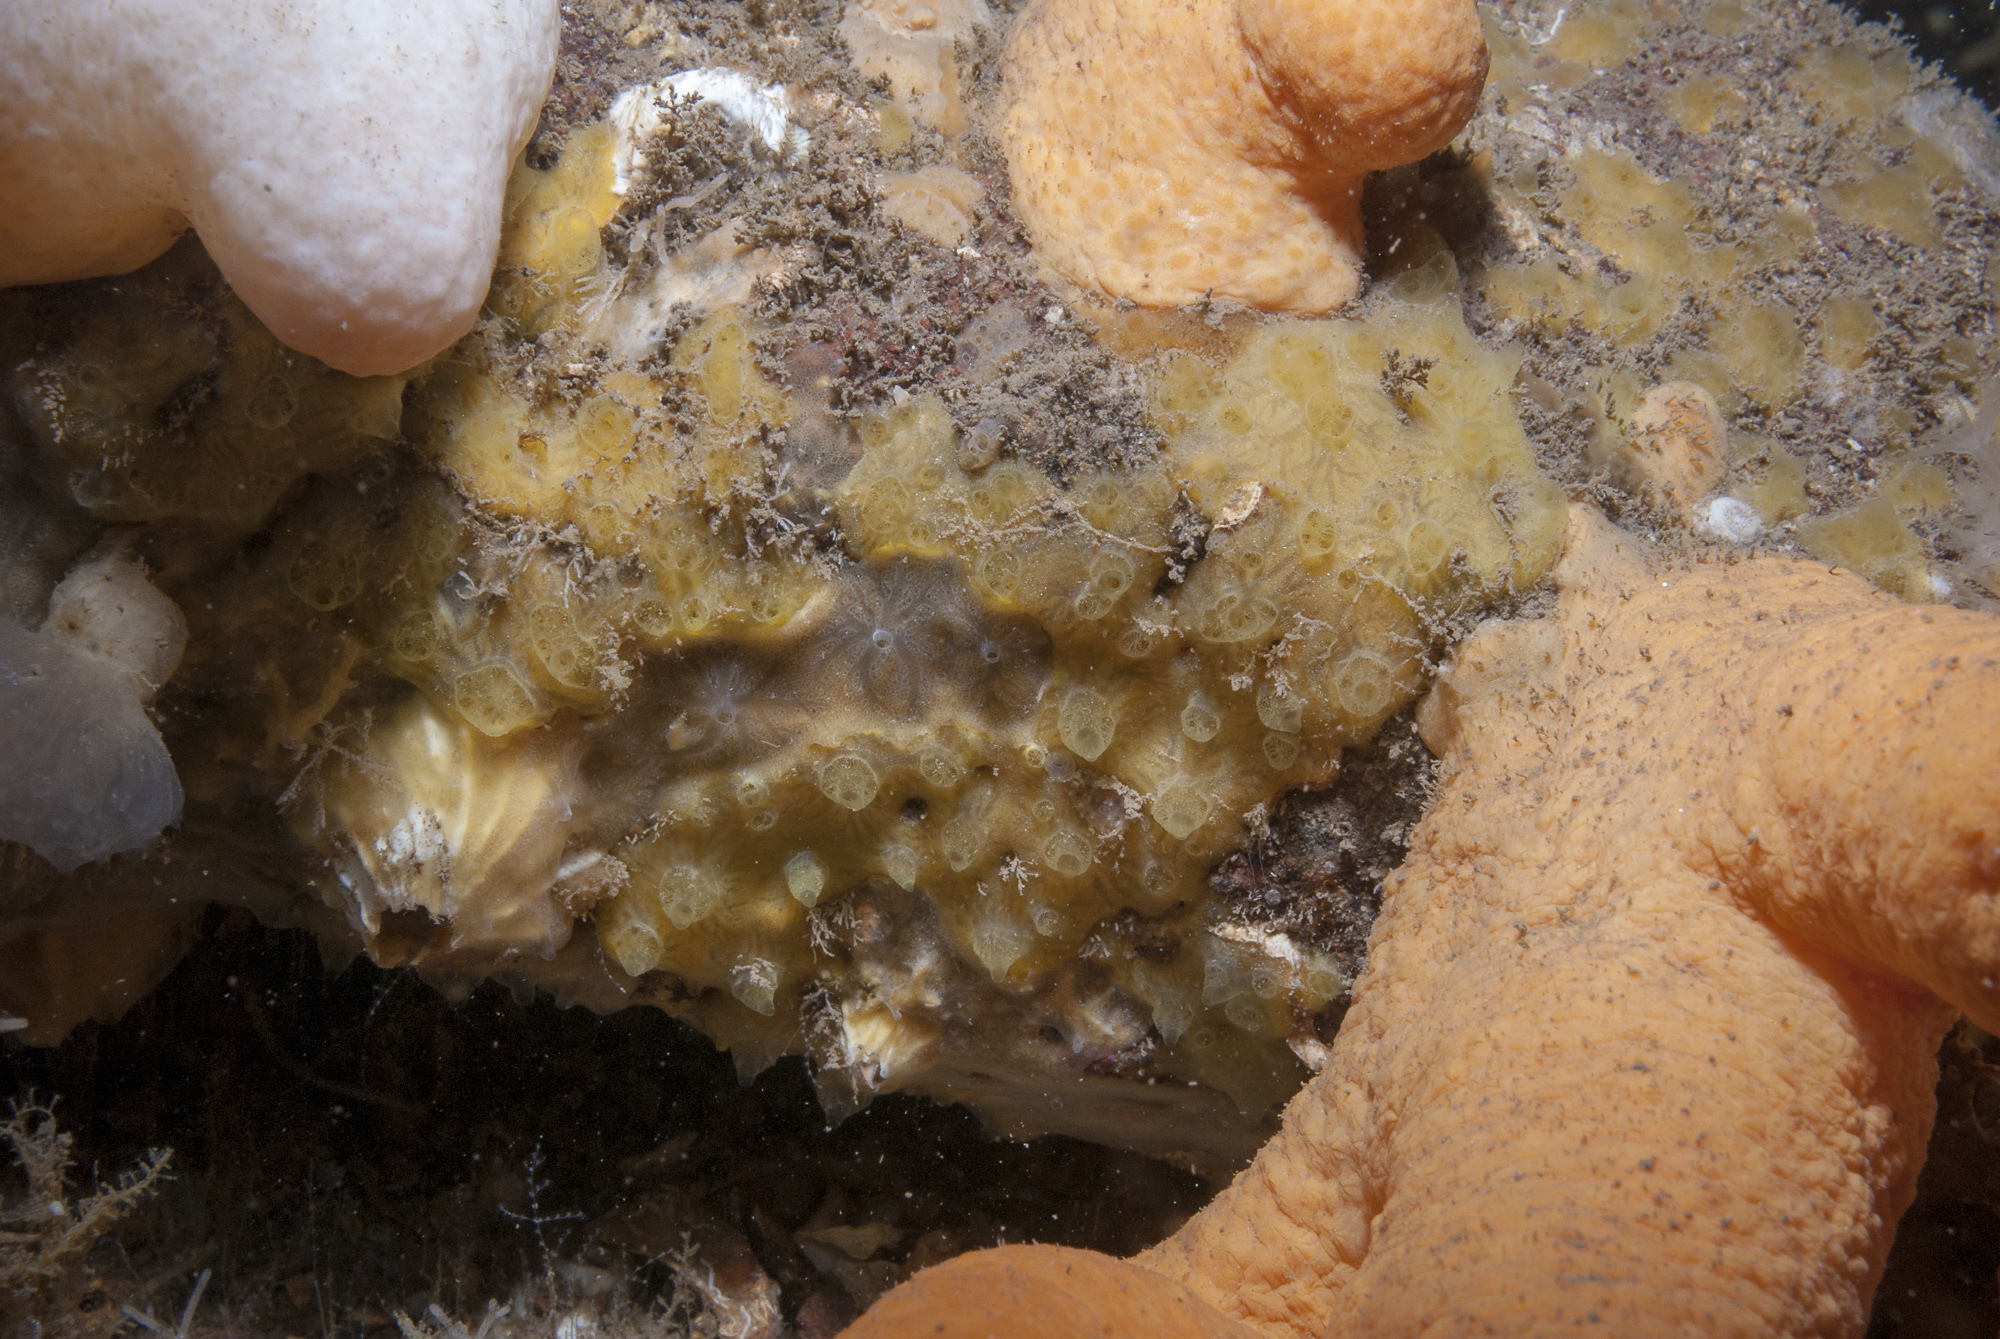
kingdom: Animalia
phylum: Porifera
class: Demospongiae
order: Poecilosclerida
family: Hymedesmiidae
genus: Hymedesmia
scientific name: Hymedesmia rathlinia
